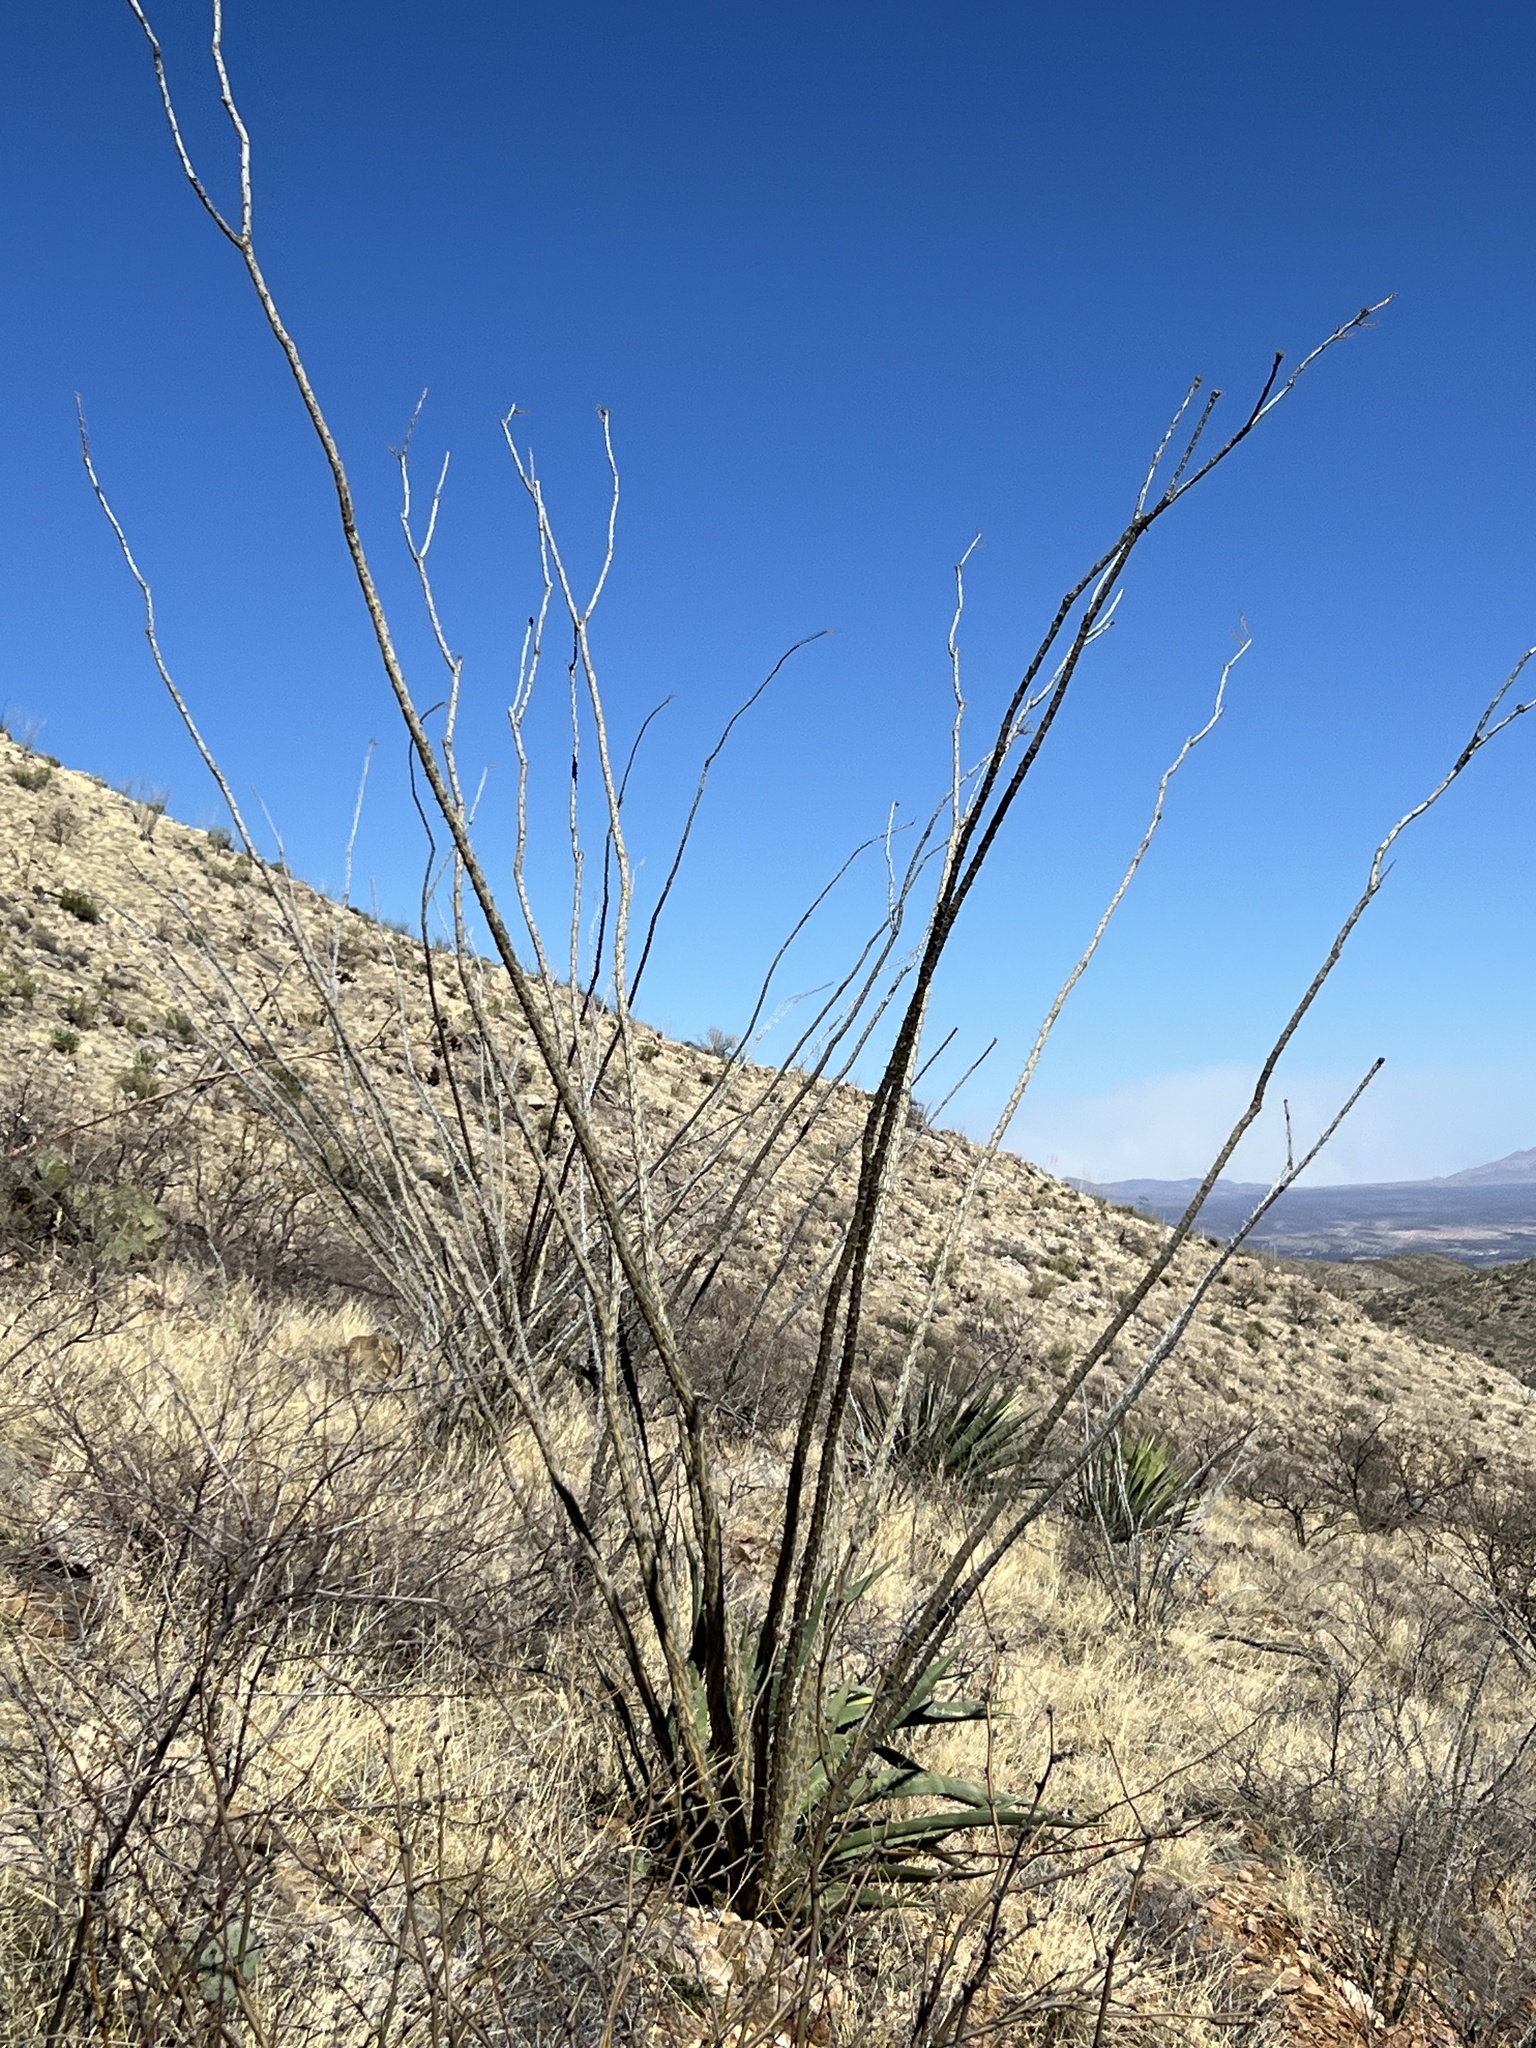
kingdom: Plantae
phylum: Tracheophyta
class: Magnoliopsida
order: Ericales
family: Fouquieriaceae
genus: Fouquieria
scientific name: Fouquieria splendens
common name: Vine-cactus
